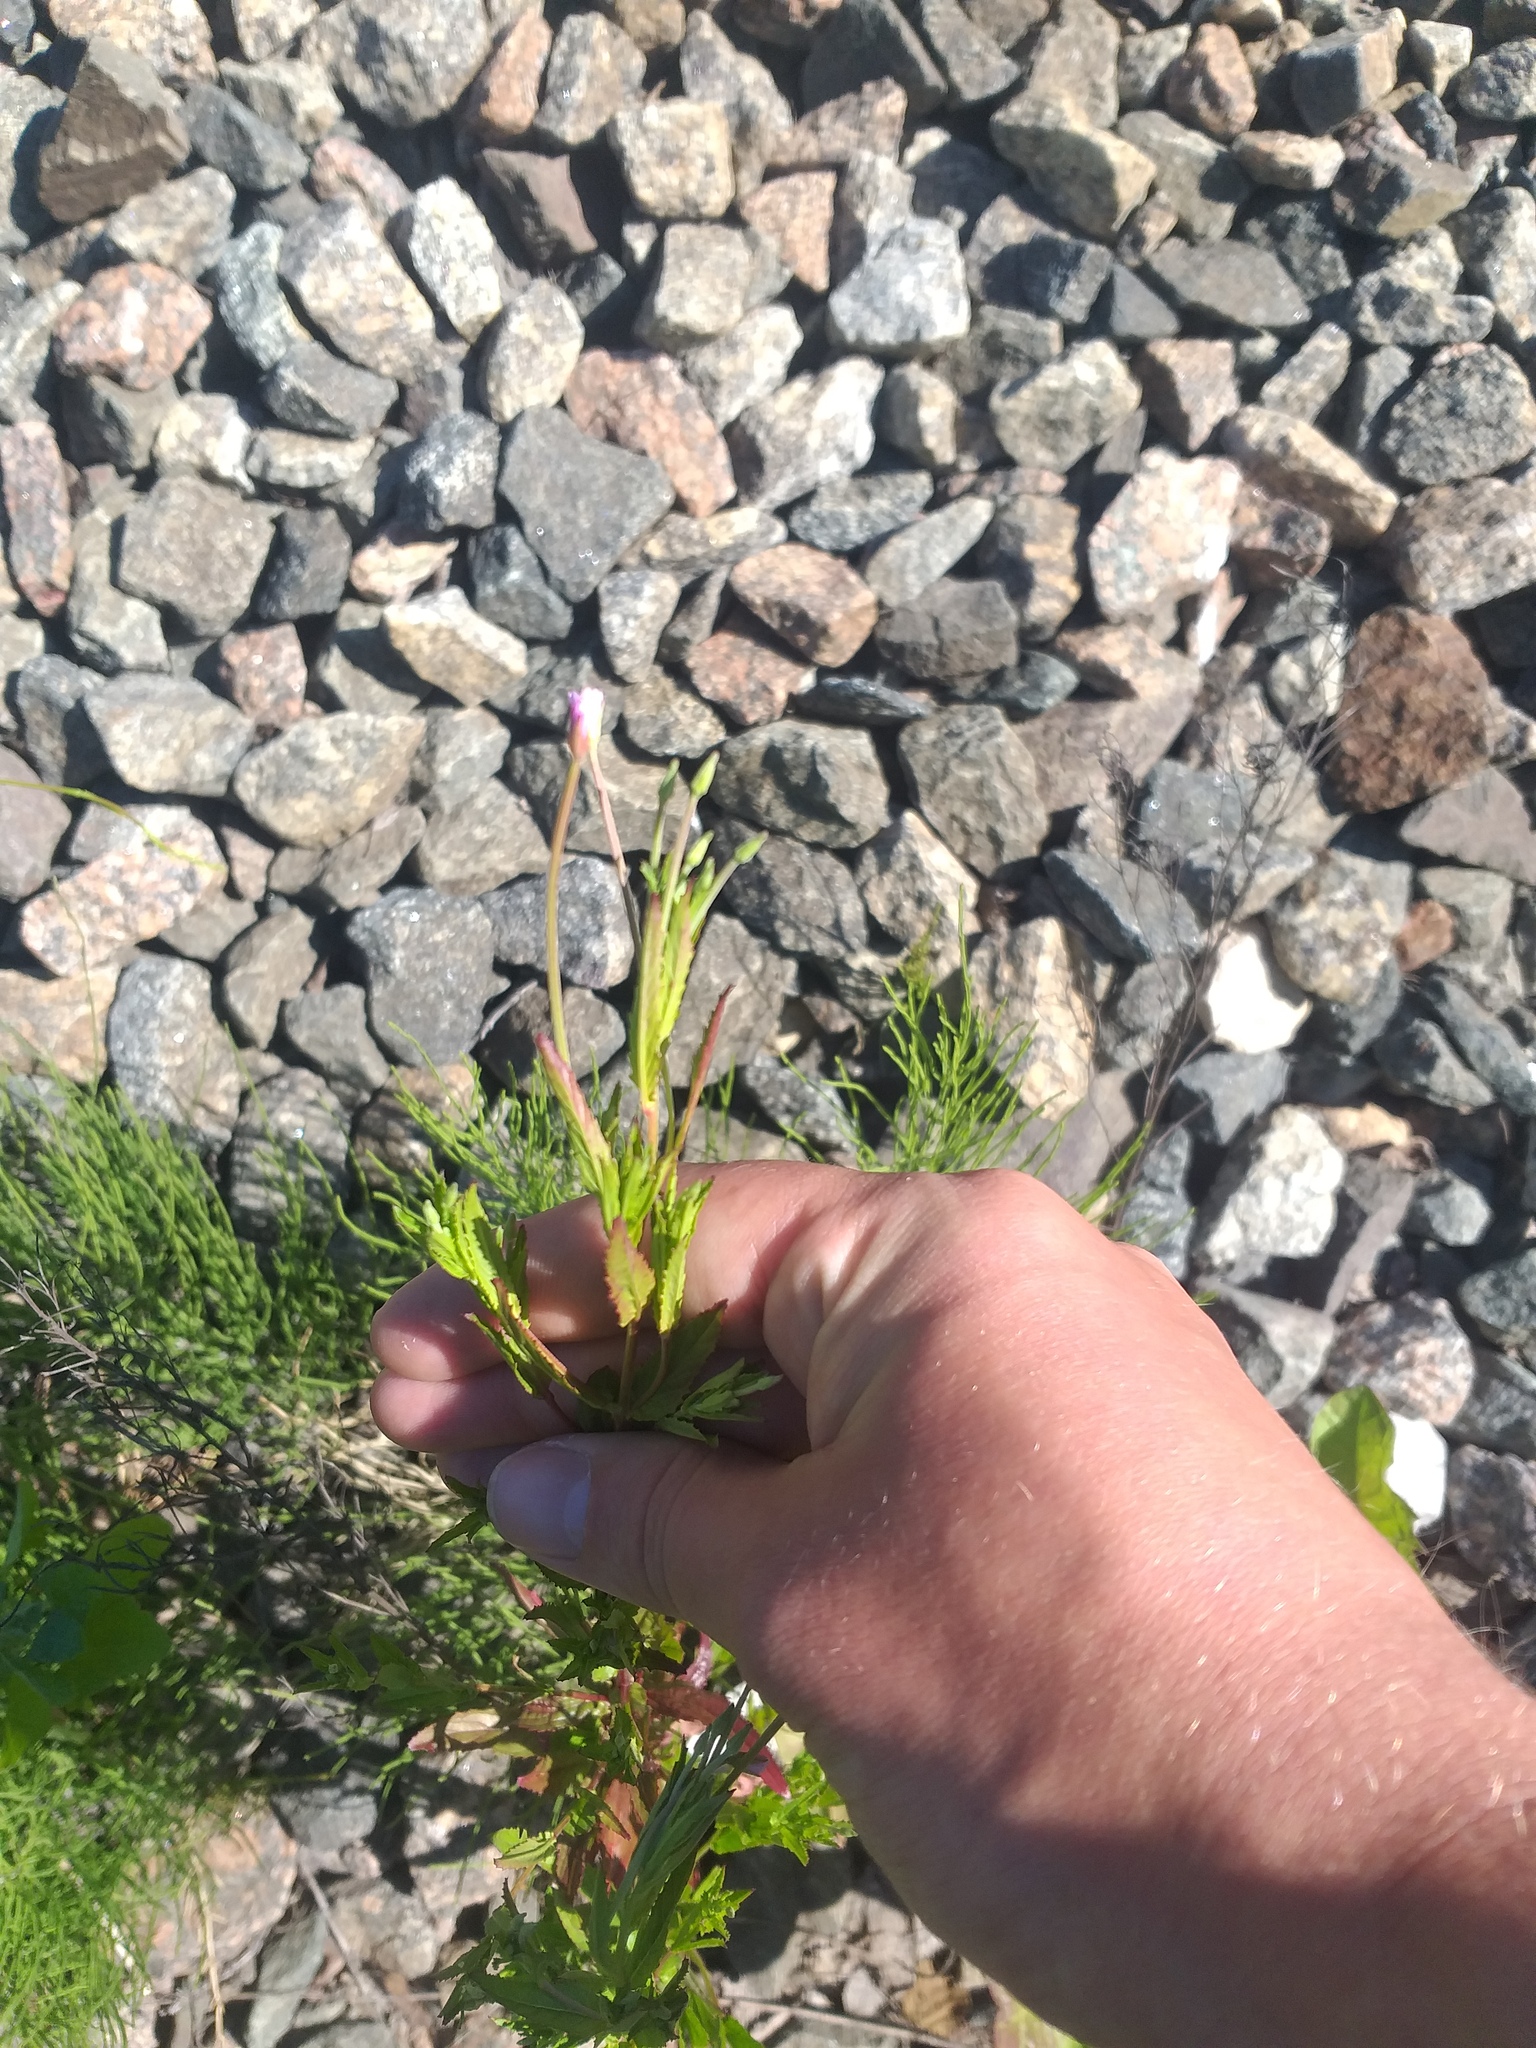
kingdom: Plantae
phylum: Tracheophyta
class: Magnoliopsida
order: Myrtales
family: Onagraceae
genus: Epilobium
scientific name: Epilobium tetragonum
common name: Square-stemmed willowherb
